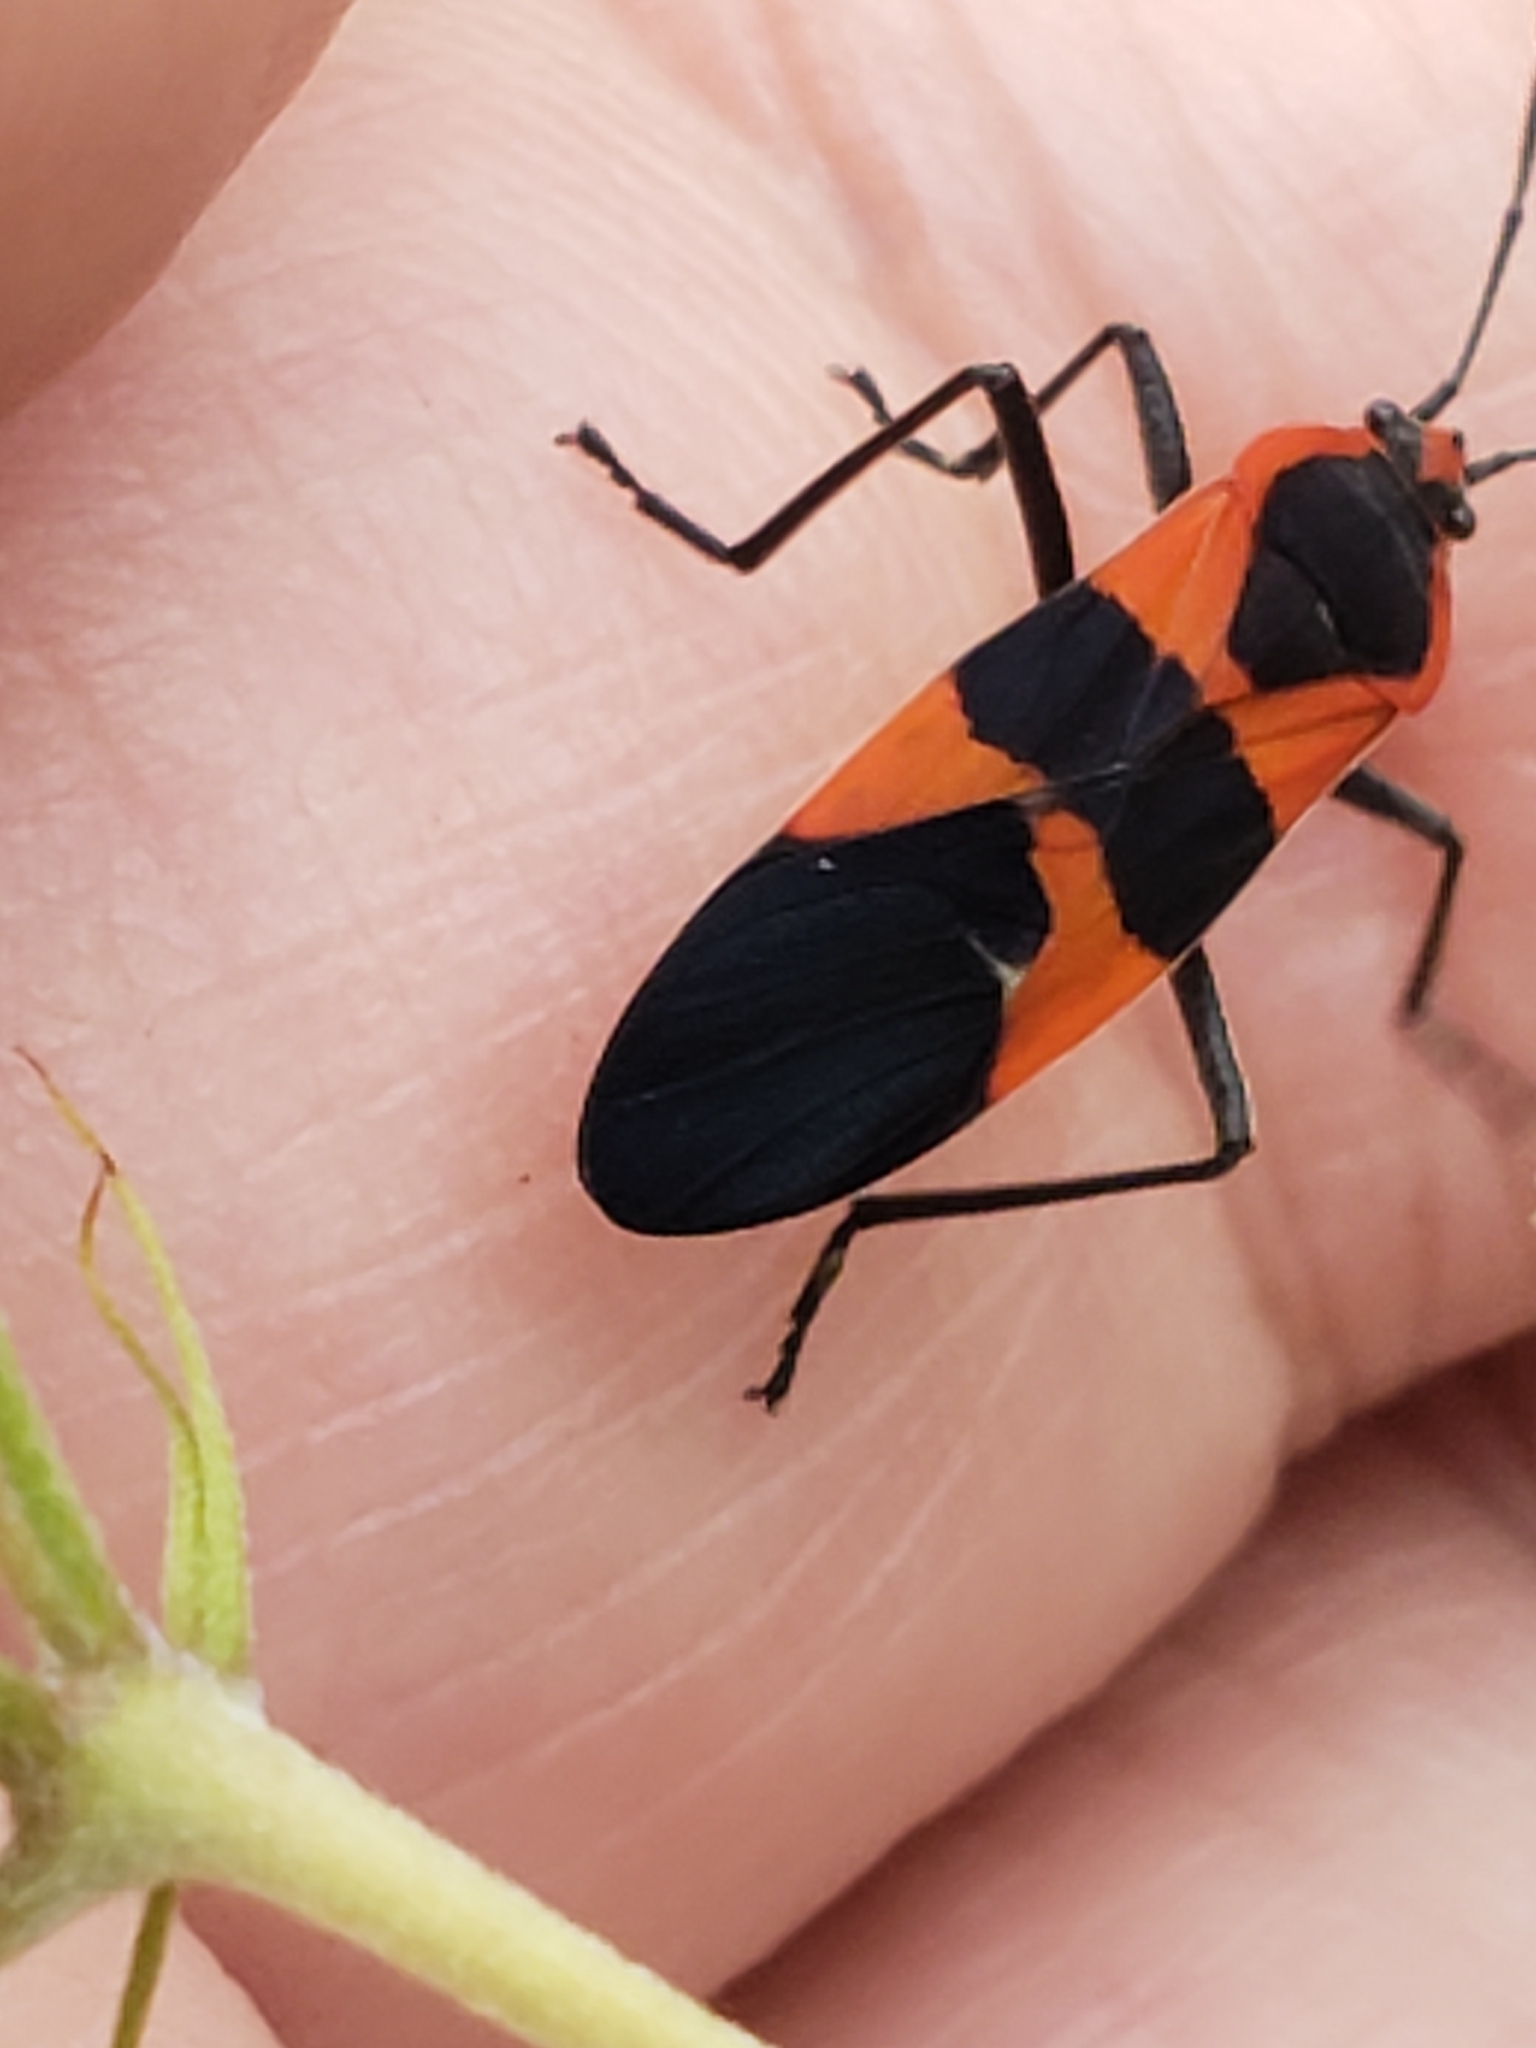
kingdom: Animalia
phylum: Arthropoda
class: Insecta
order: Hemiptera
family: Lygaeidae
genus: Oncopeltus
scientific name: Oncopeltus fasciatus
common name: Large milkweed bug
